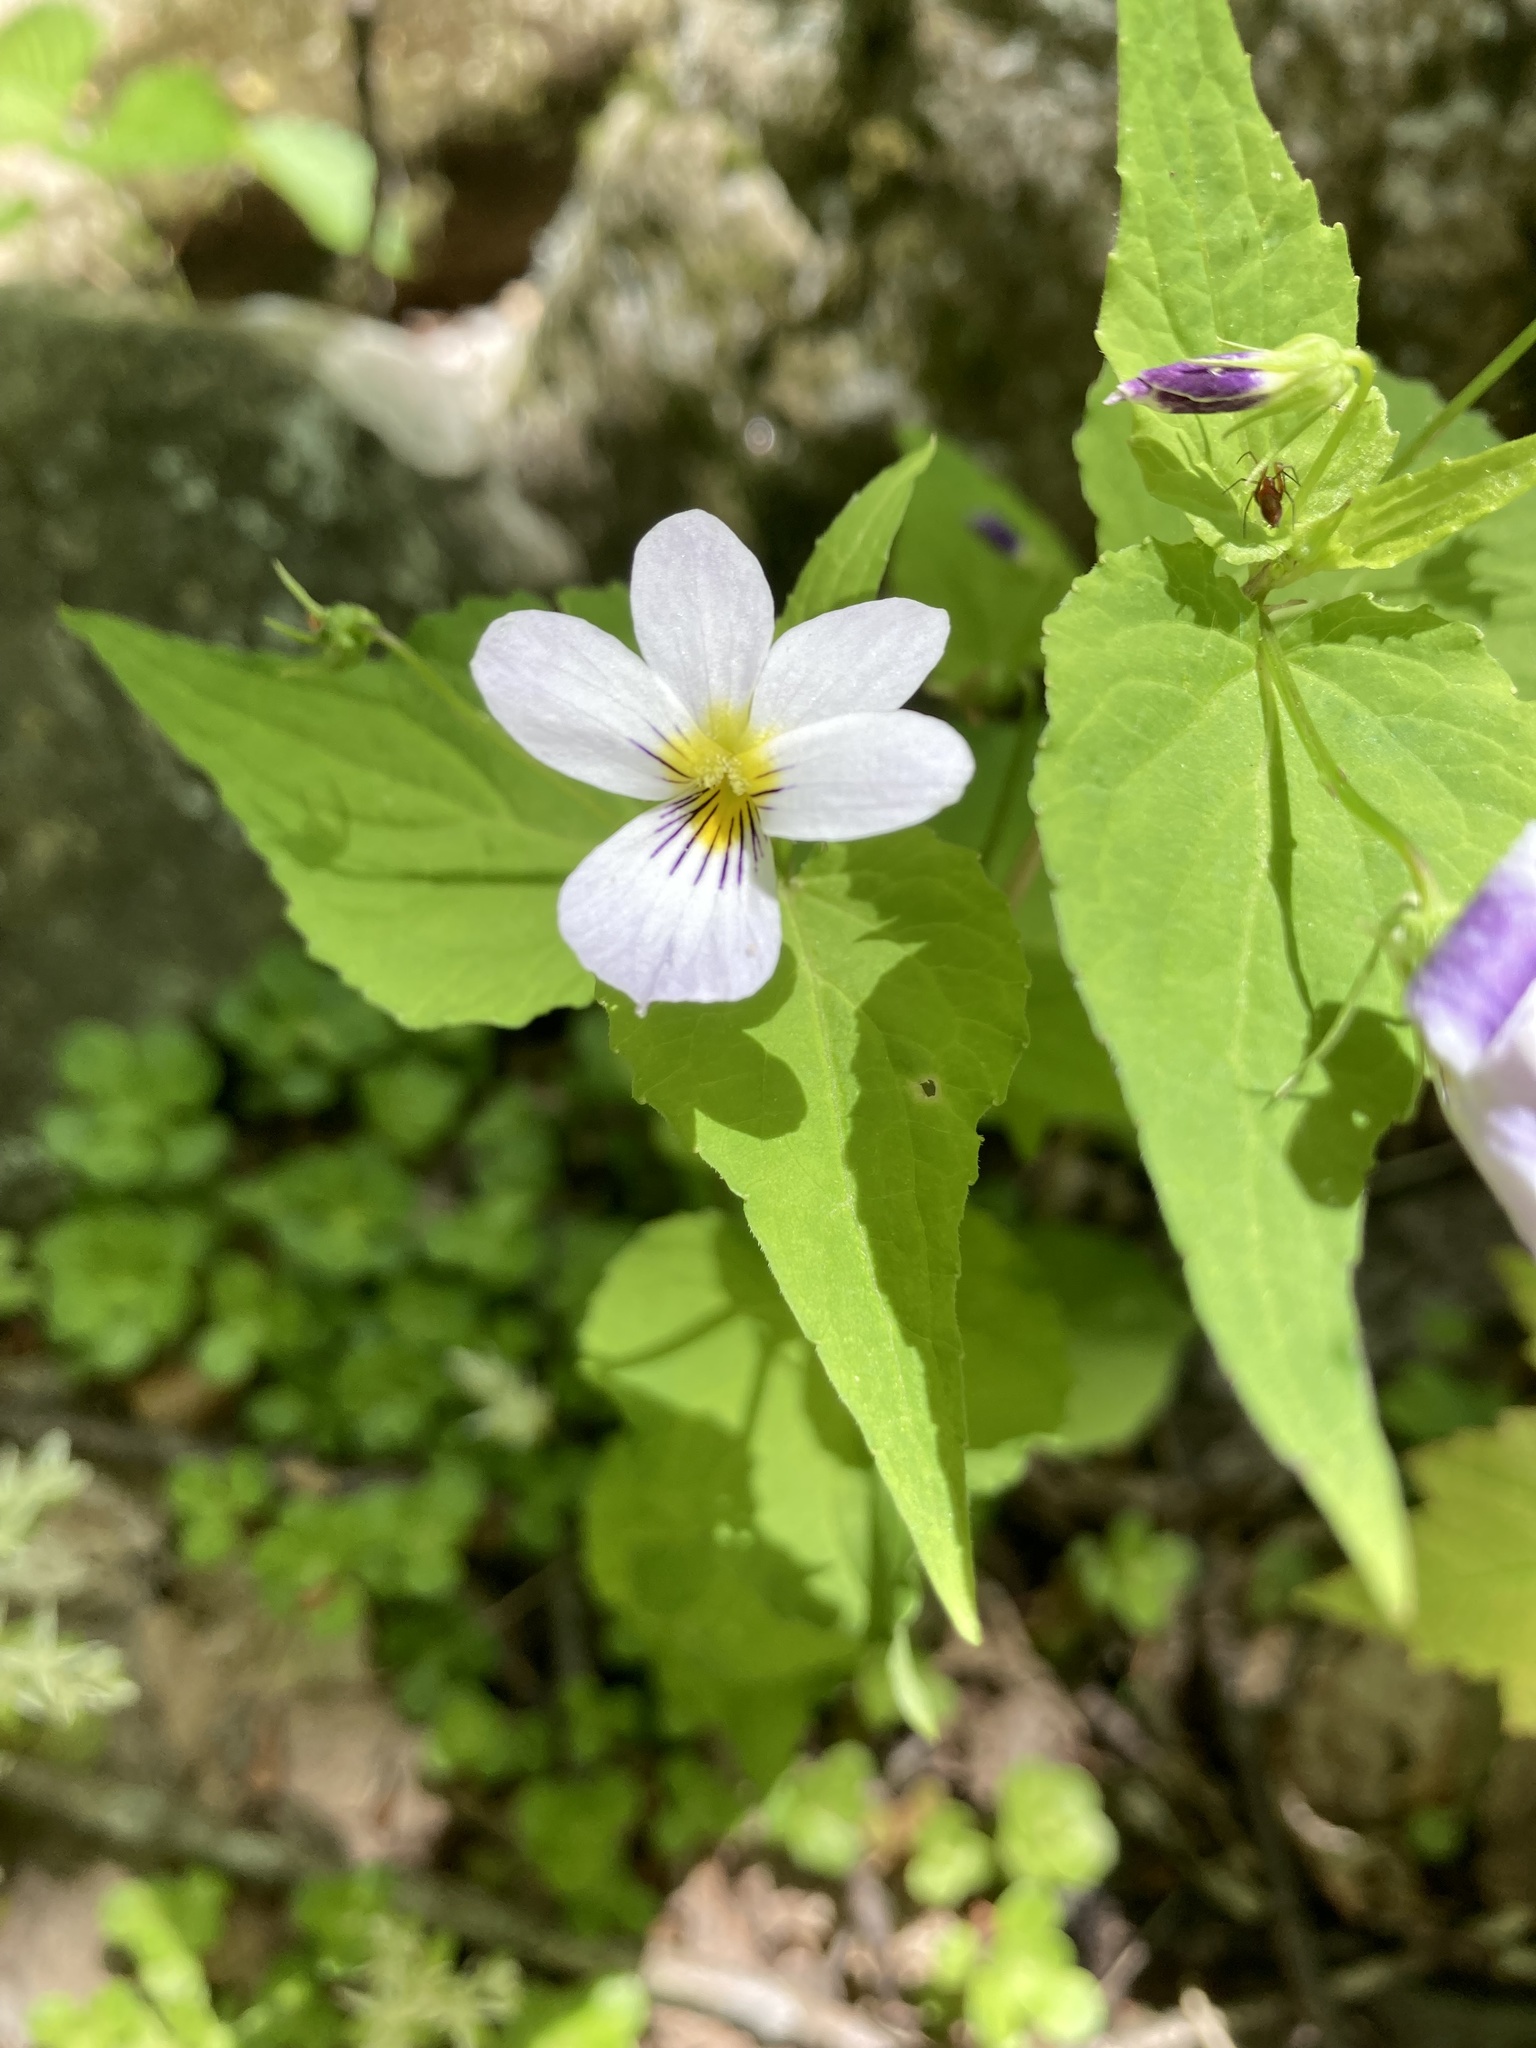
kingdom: Plantae
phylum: Tracheophyta
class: Magnoliopsida
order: Malpighiales
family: Violaceae
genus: Viola
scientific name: Viola canadensis
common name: Canada violet
